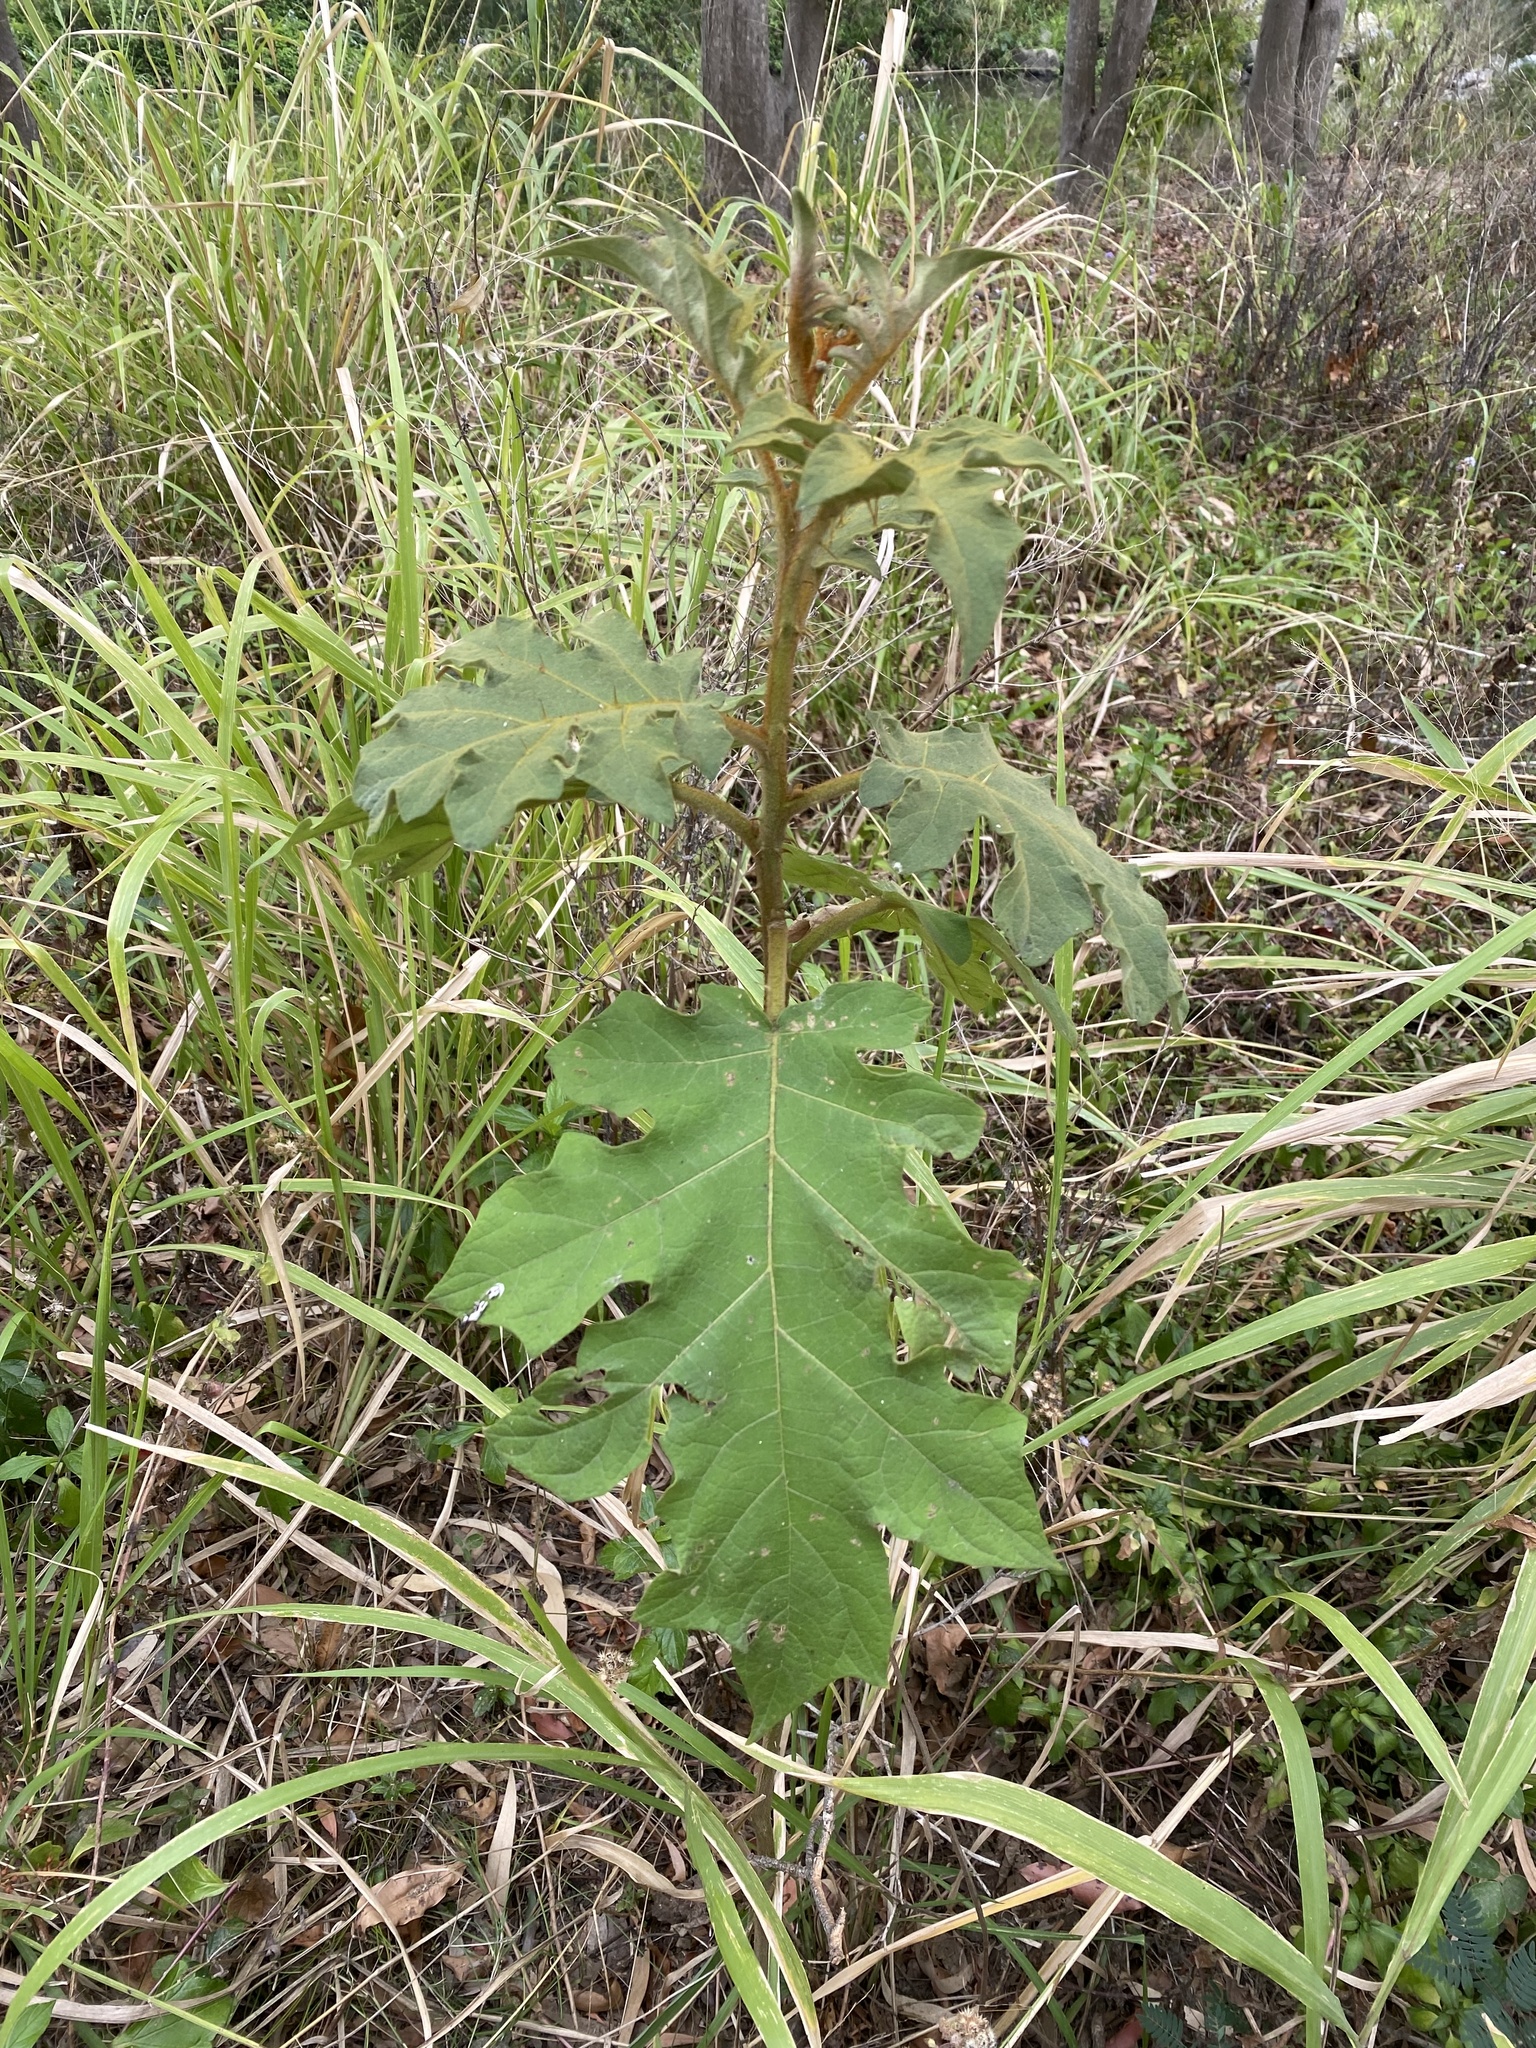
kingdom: Plantae
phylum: Tracheophyta
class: Magnoliopsida
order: Solanales
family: Solanaceae
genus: Solanum
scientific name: Solanum chrysotrichum
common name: Nightshade
